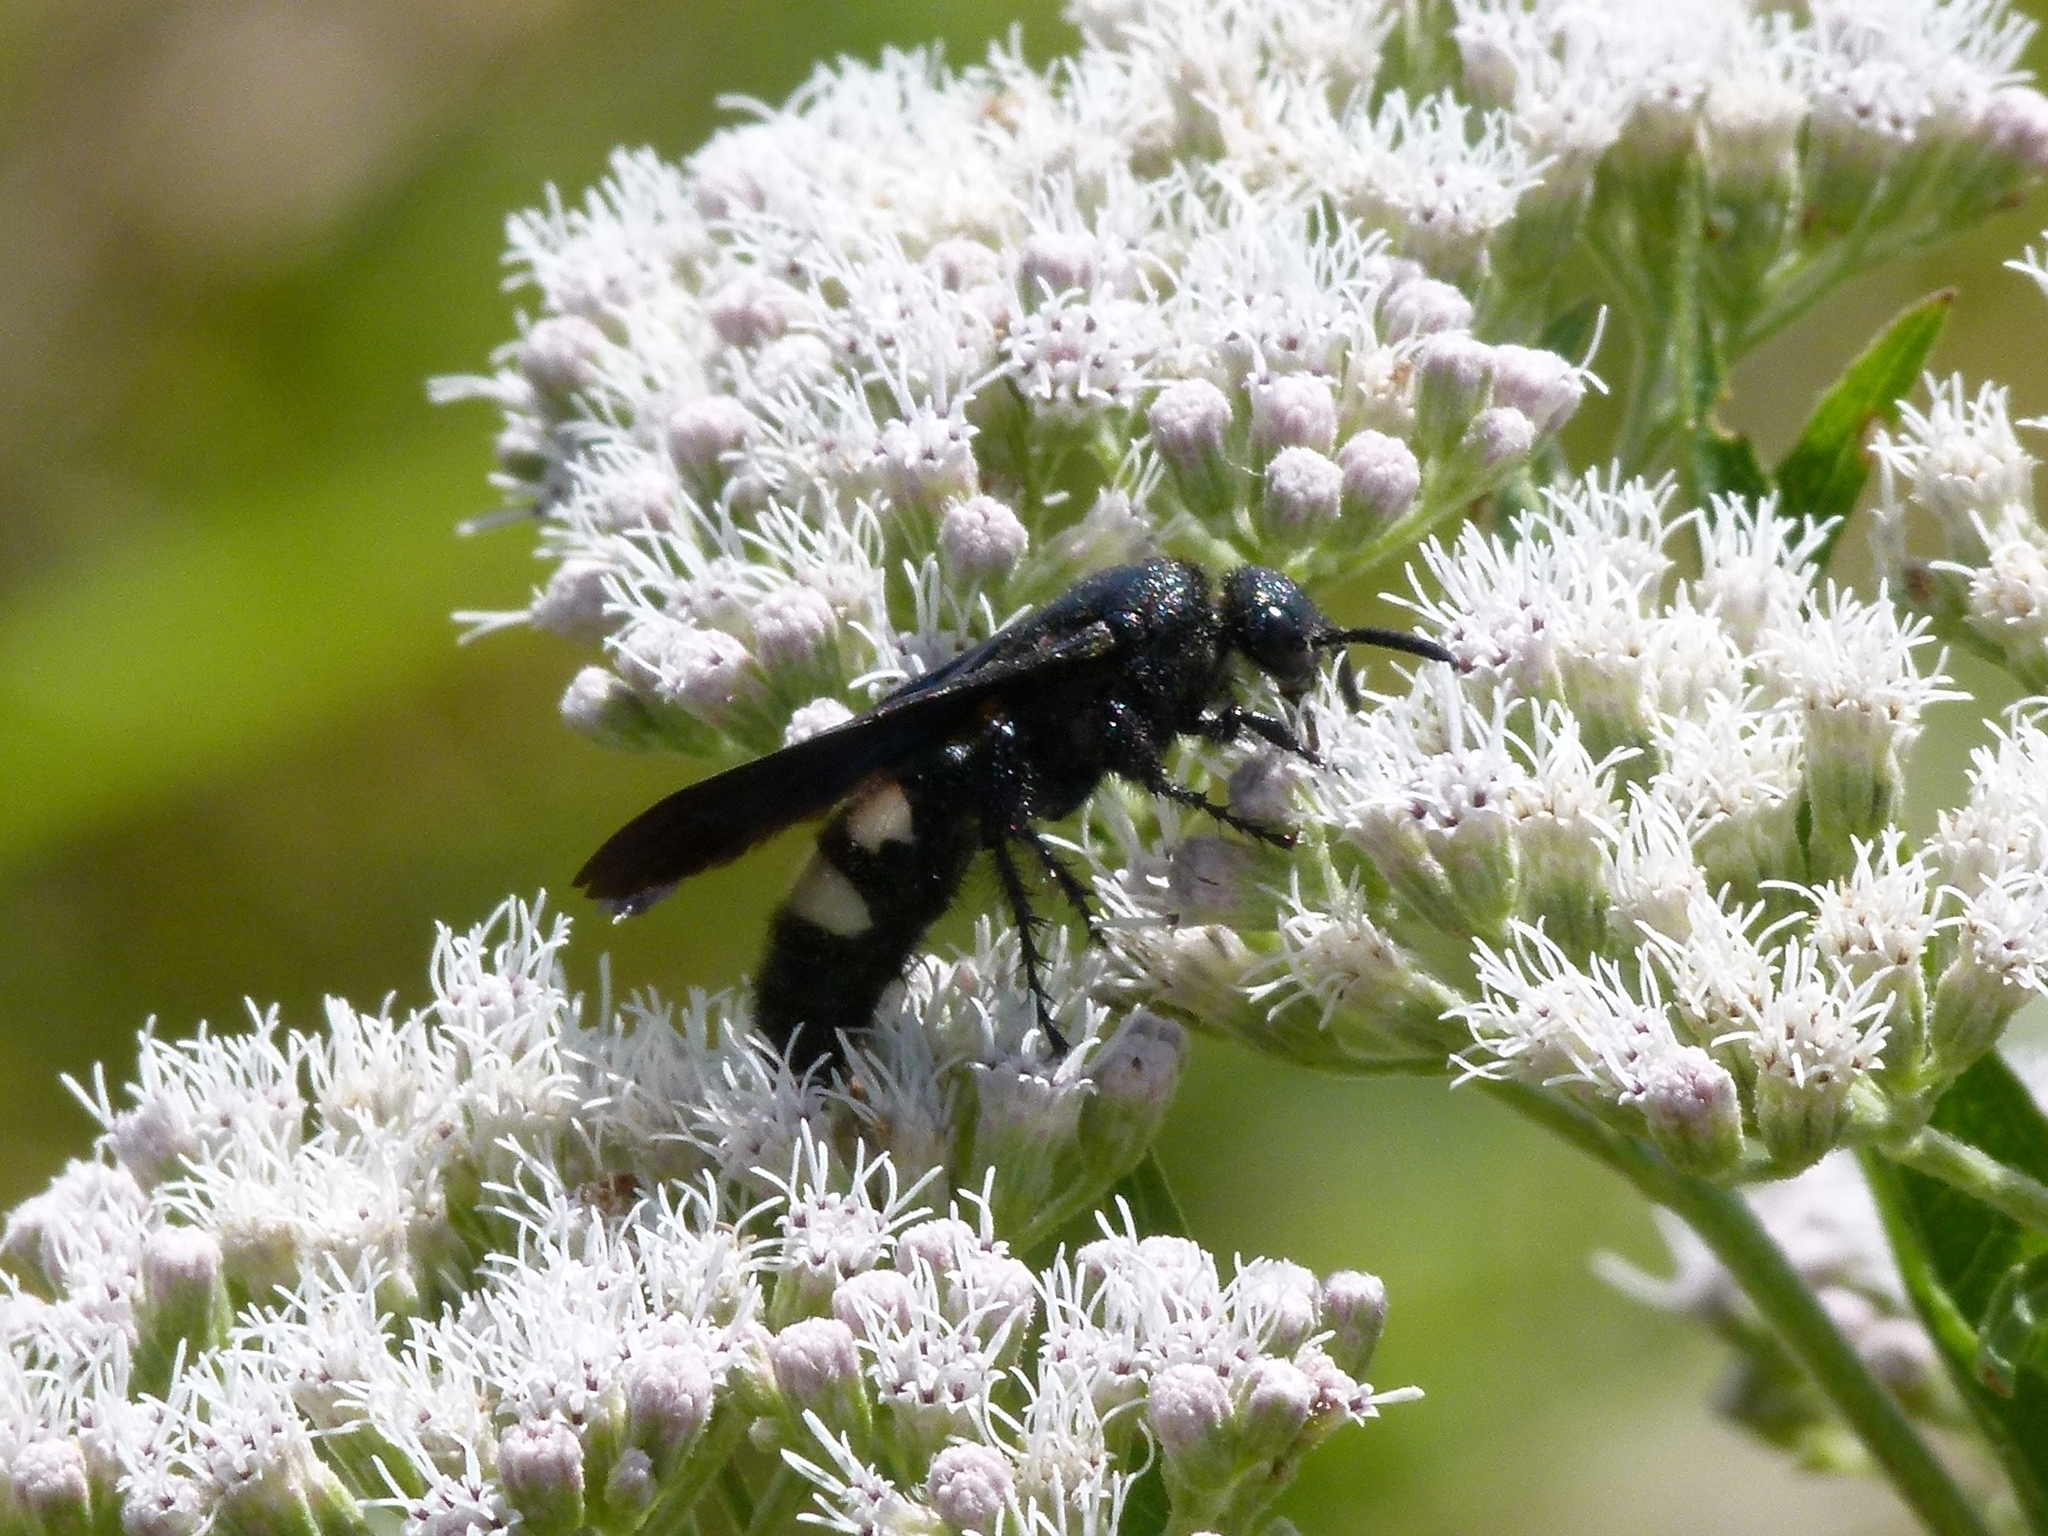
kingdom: Animalia
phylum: Arthropoda
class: Insecta
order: Hymenoptera
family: Scoliidae
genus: Scolia
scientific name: Scolia bicincta
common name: Double-banded scoliid wasp
